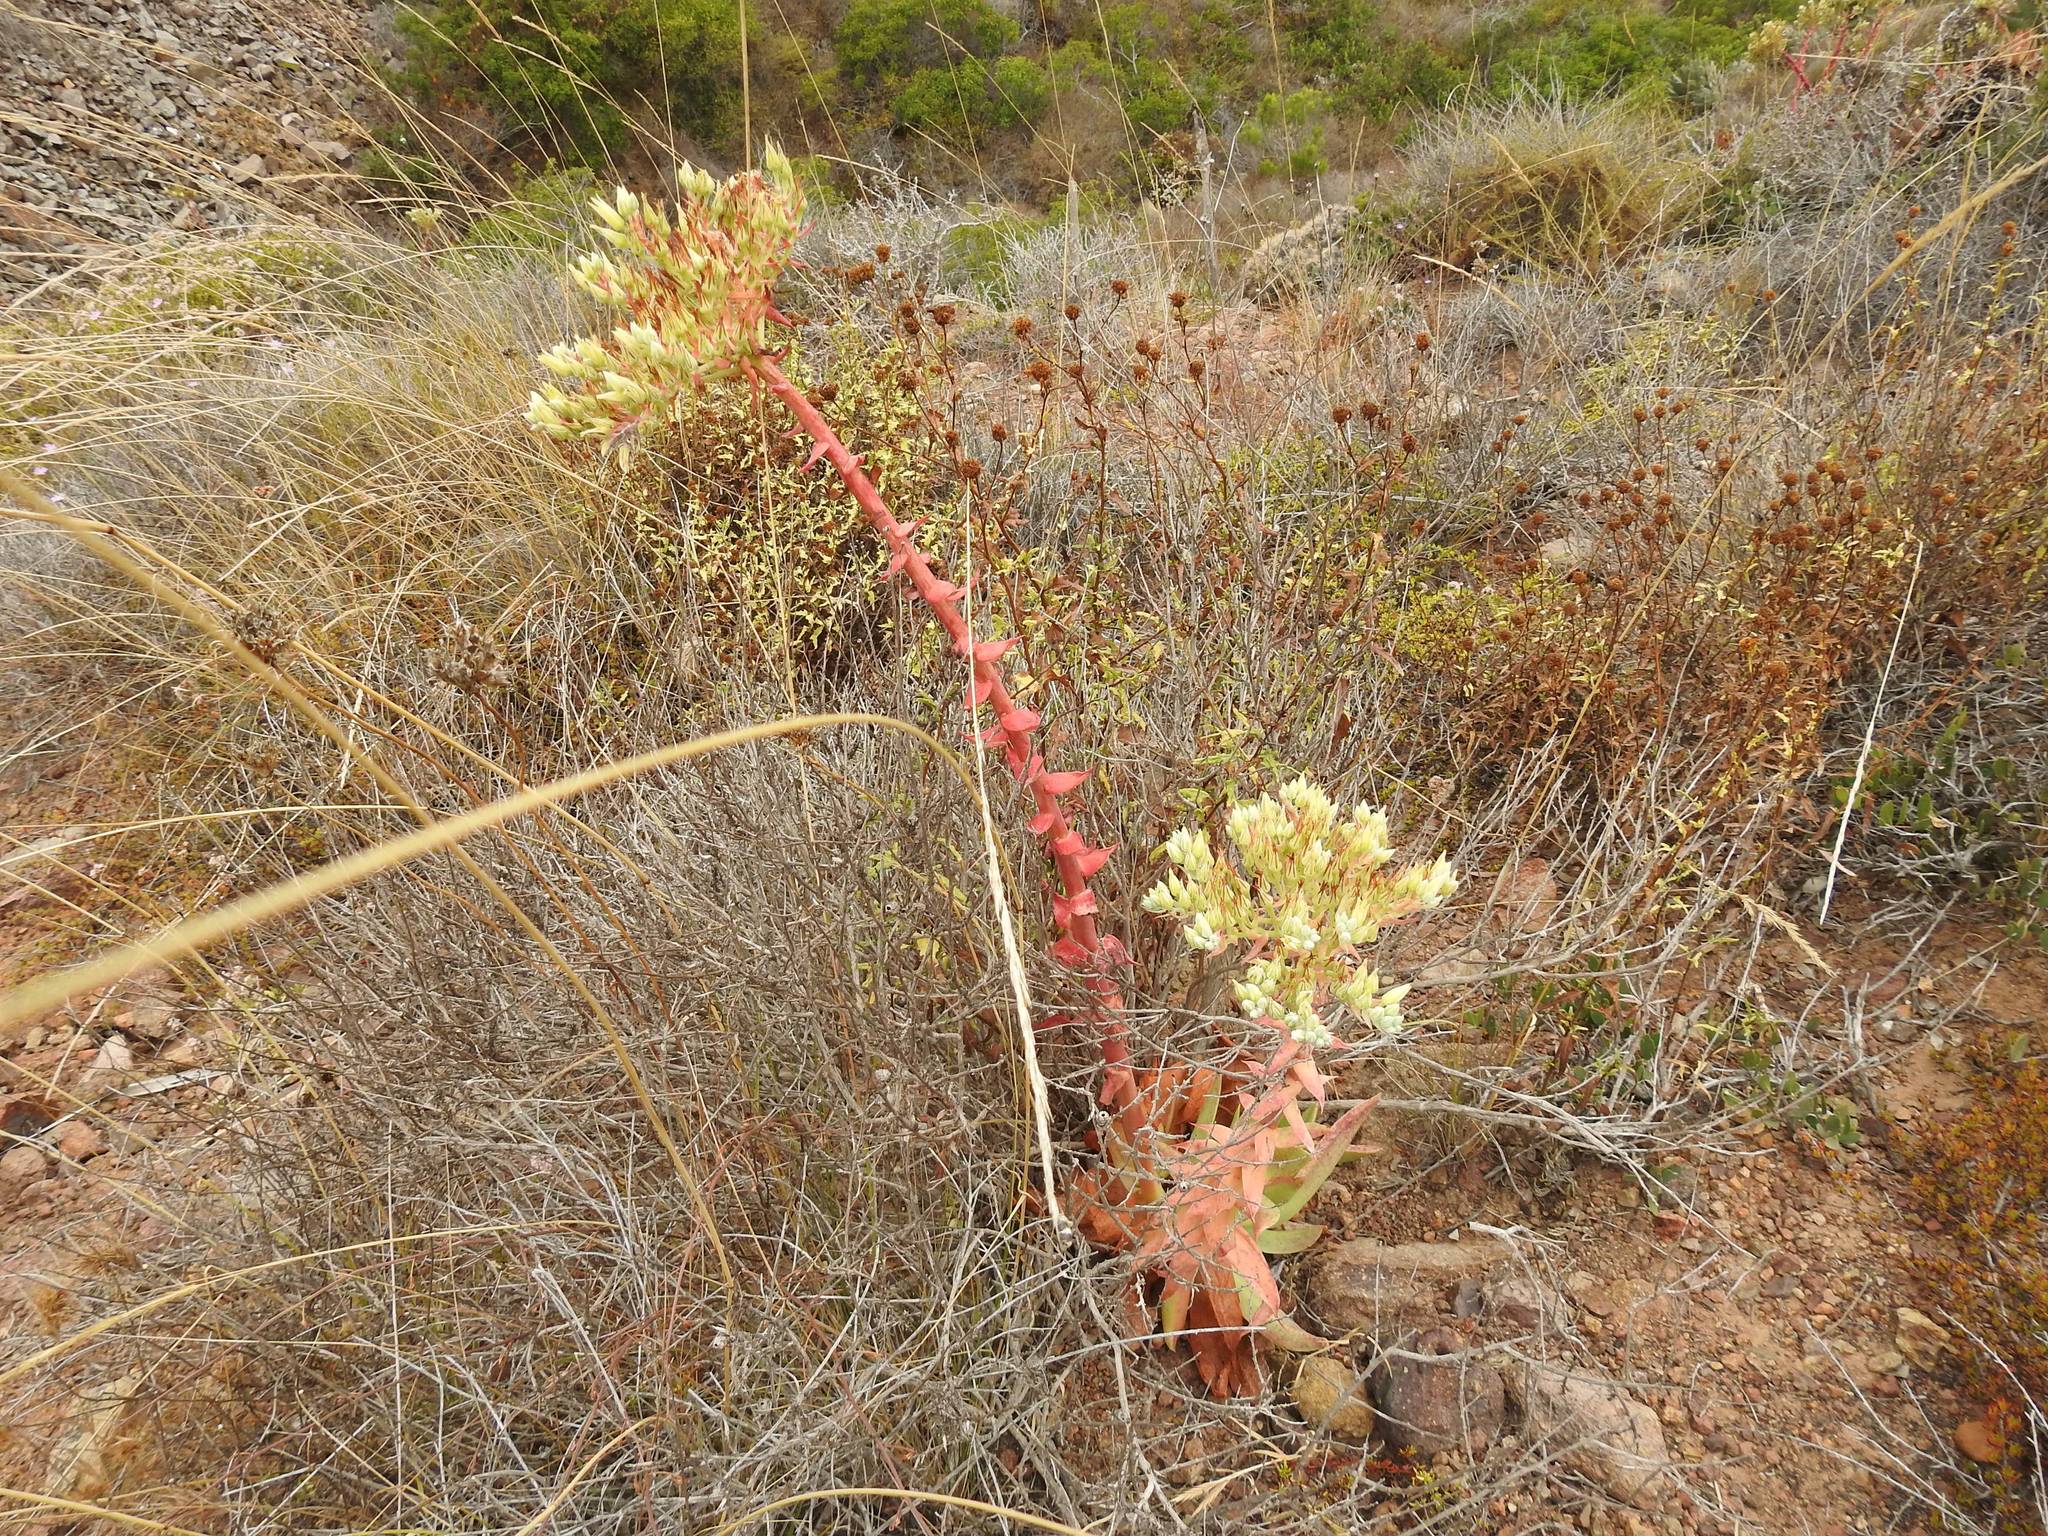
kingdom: Plantae
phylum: Tracheophyta
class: Magnoliopsida
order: Saxifragales
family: Crassulaceae
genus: Dudleya
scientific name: Dudleya brittonii
